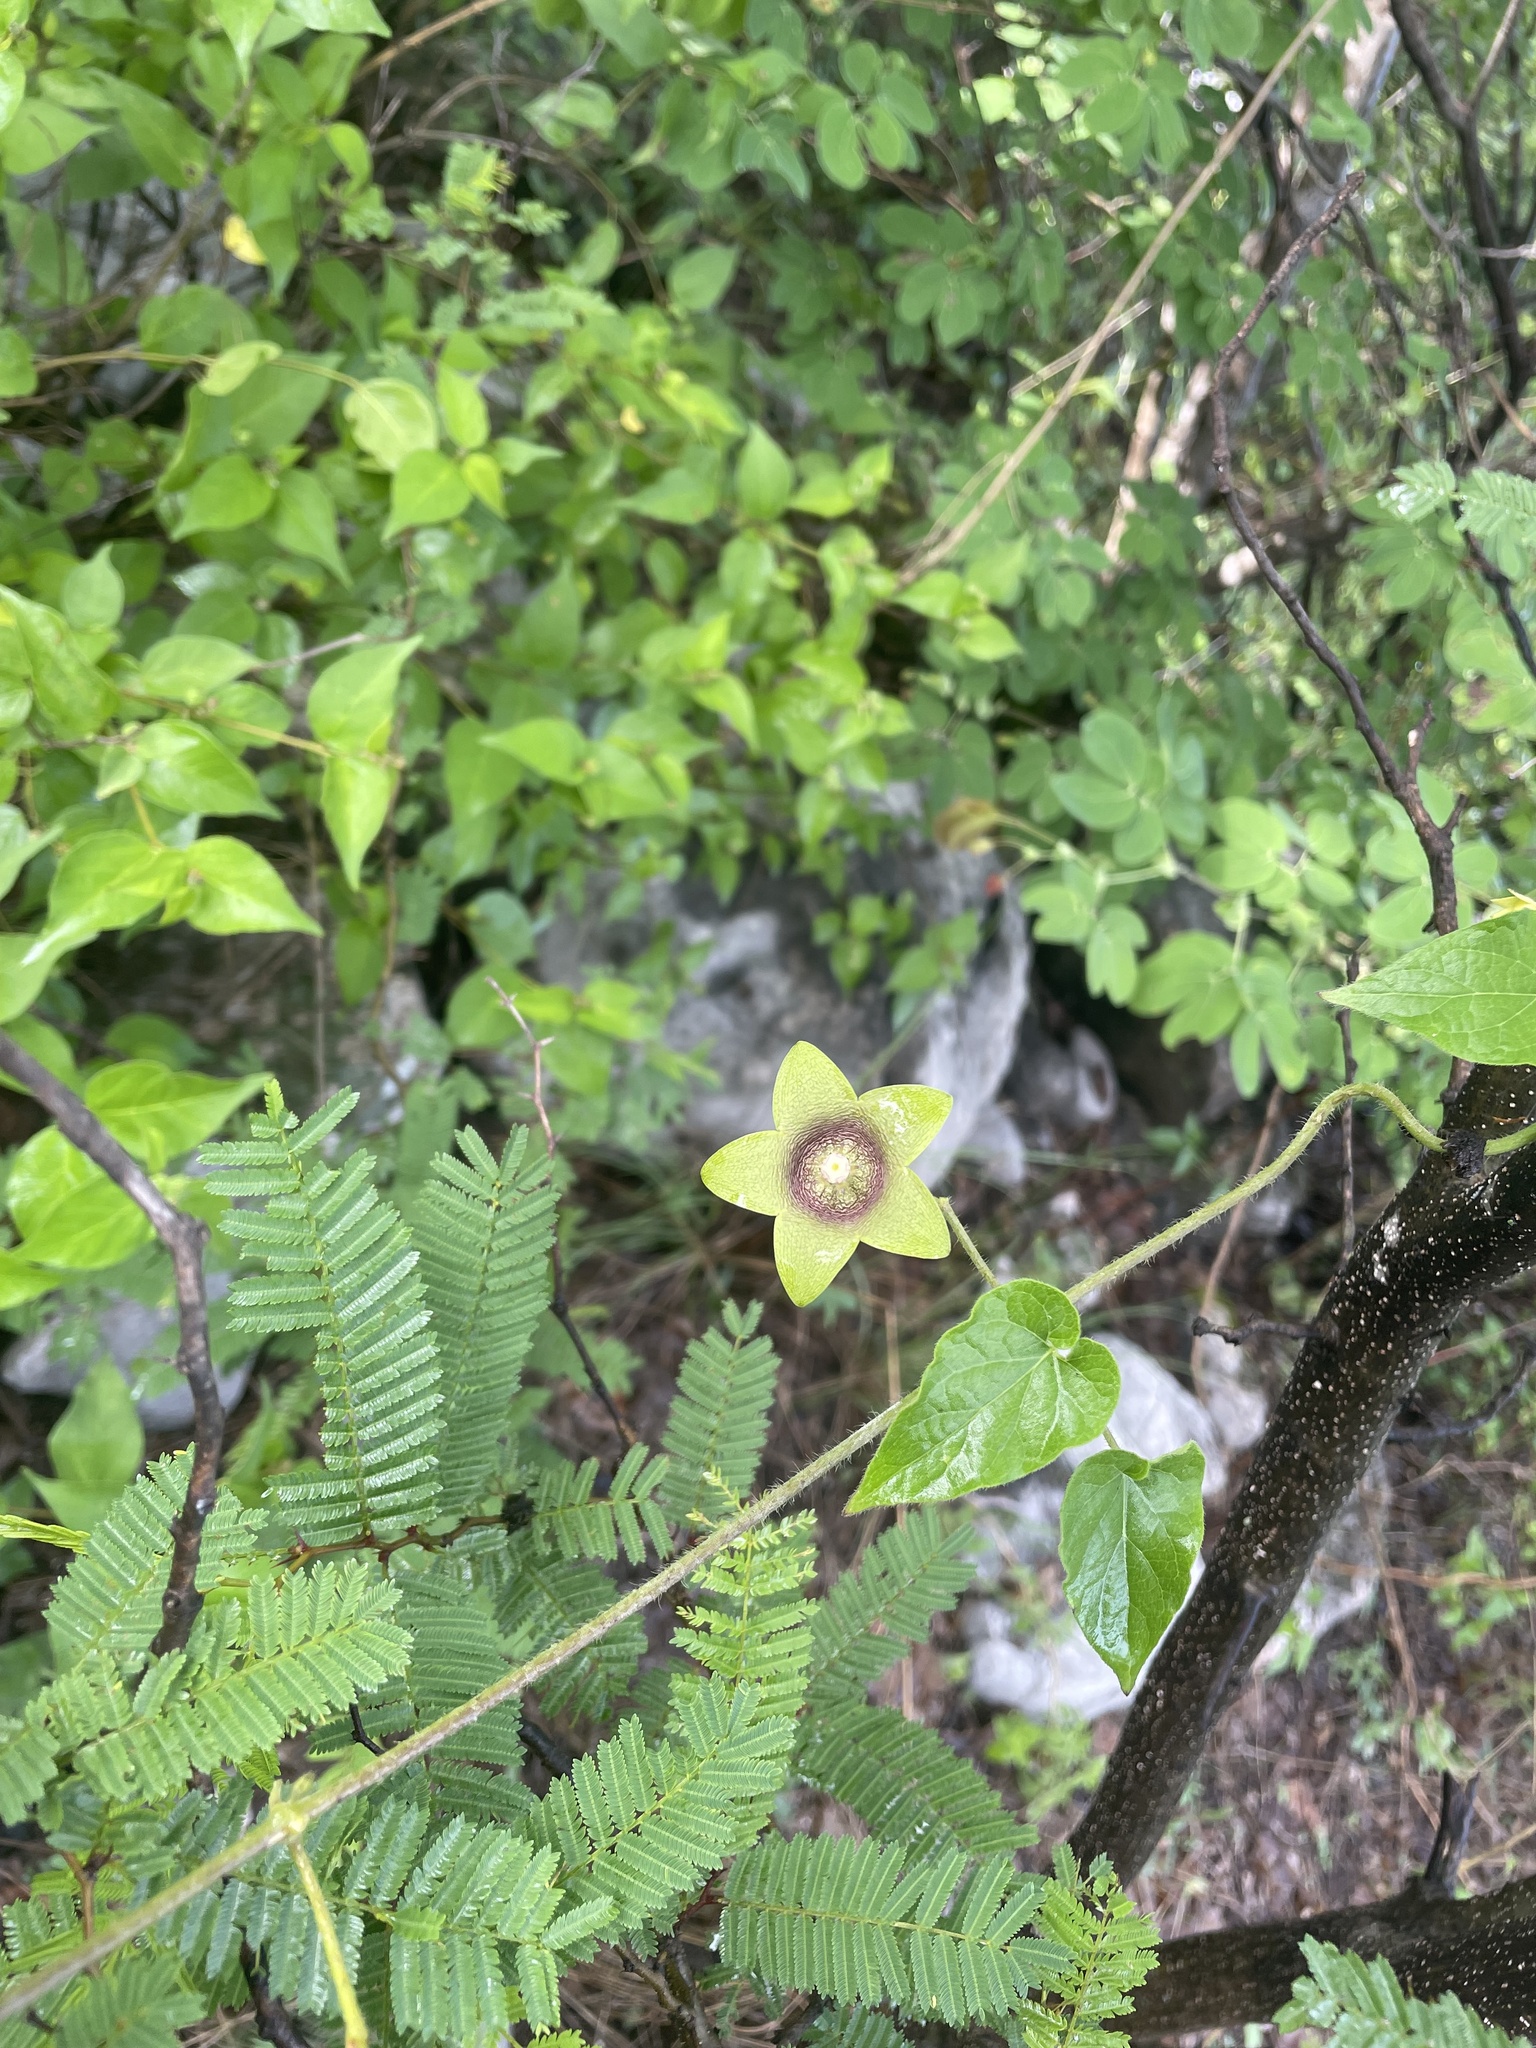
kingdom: Plantae
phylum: Tracheophyta
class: Magnoliopsida
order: Gentianales
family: Apocynaceae
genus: Polystemma
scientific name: Polystemma scopulorum
